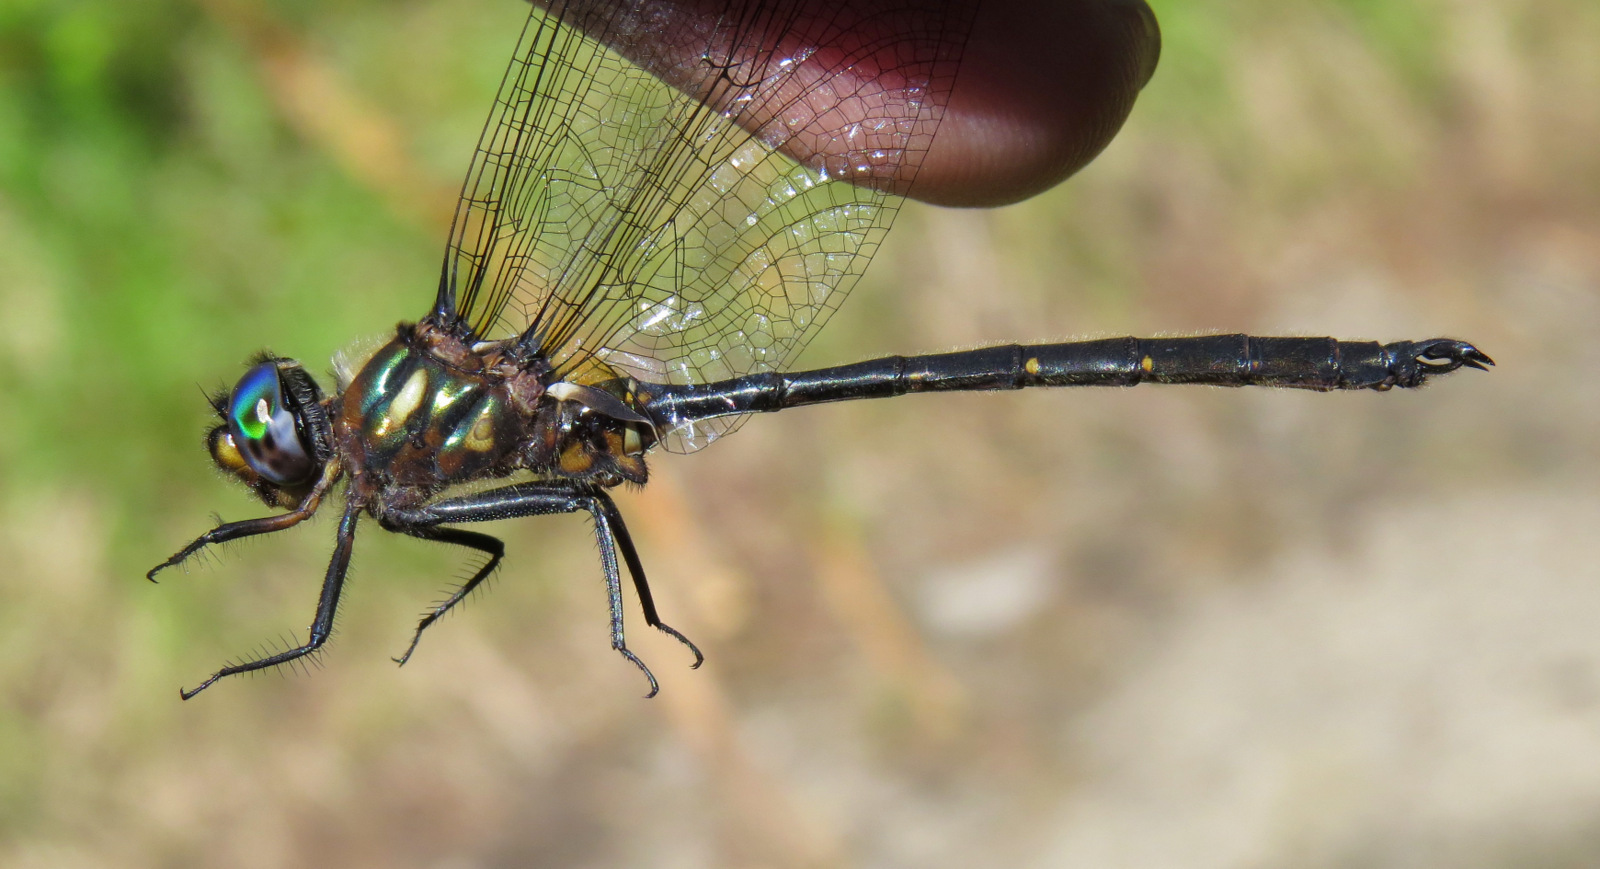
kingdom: Animalia
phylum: Arthropoda
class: Insecta
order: Odonata
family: Corduliidae
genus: Somatochlora
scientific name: Somatochlora forcipata
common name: Forcipate emerald
